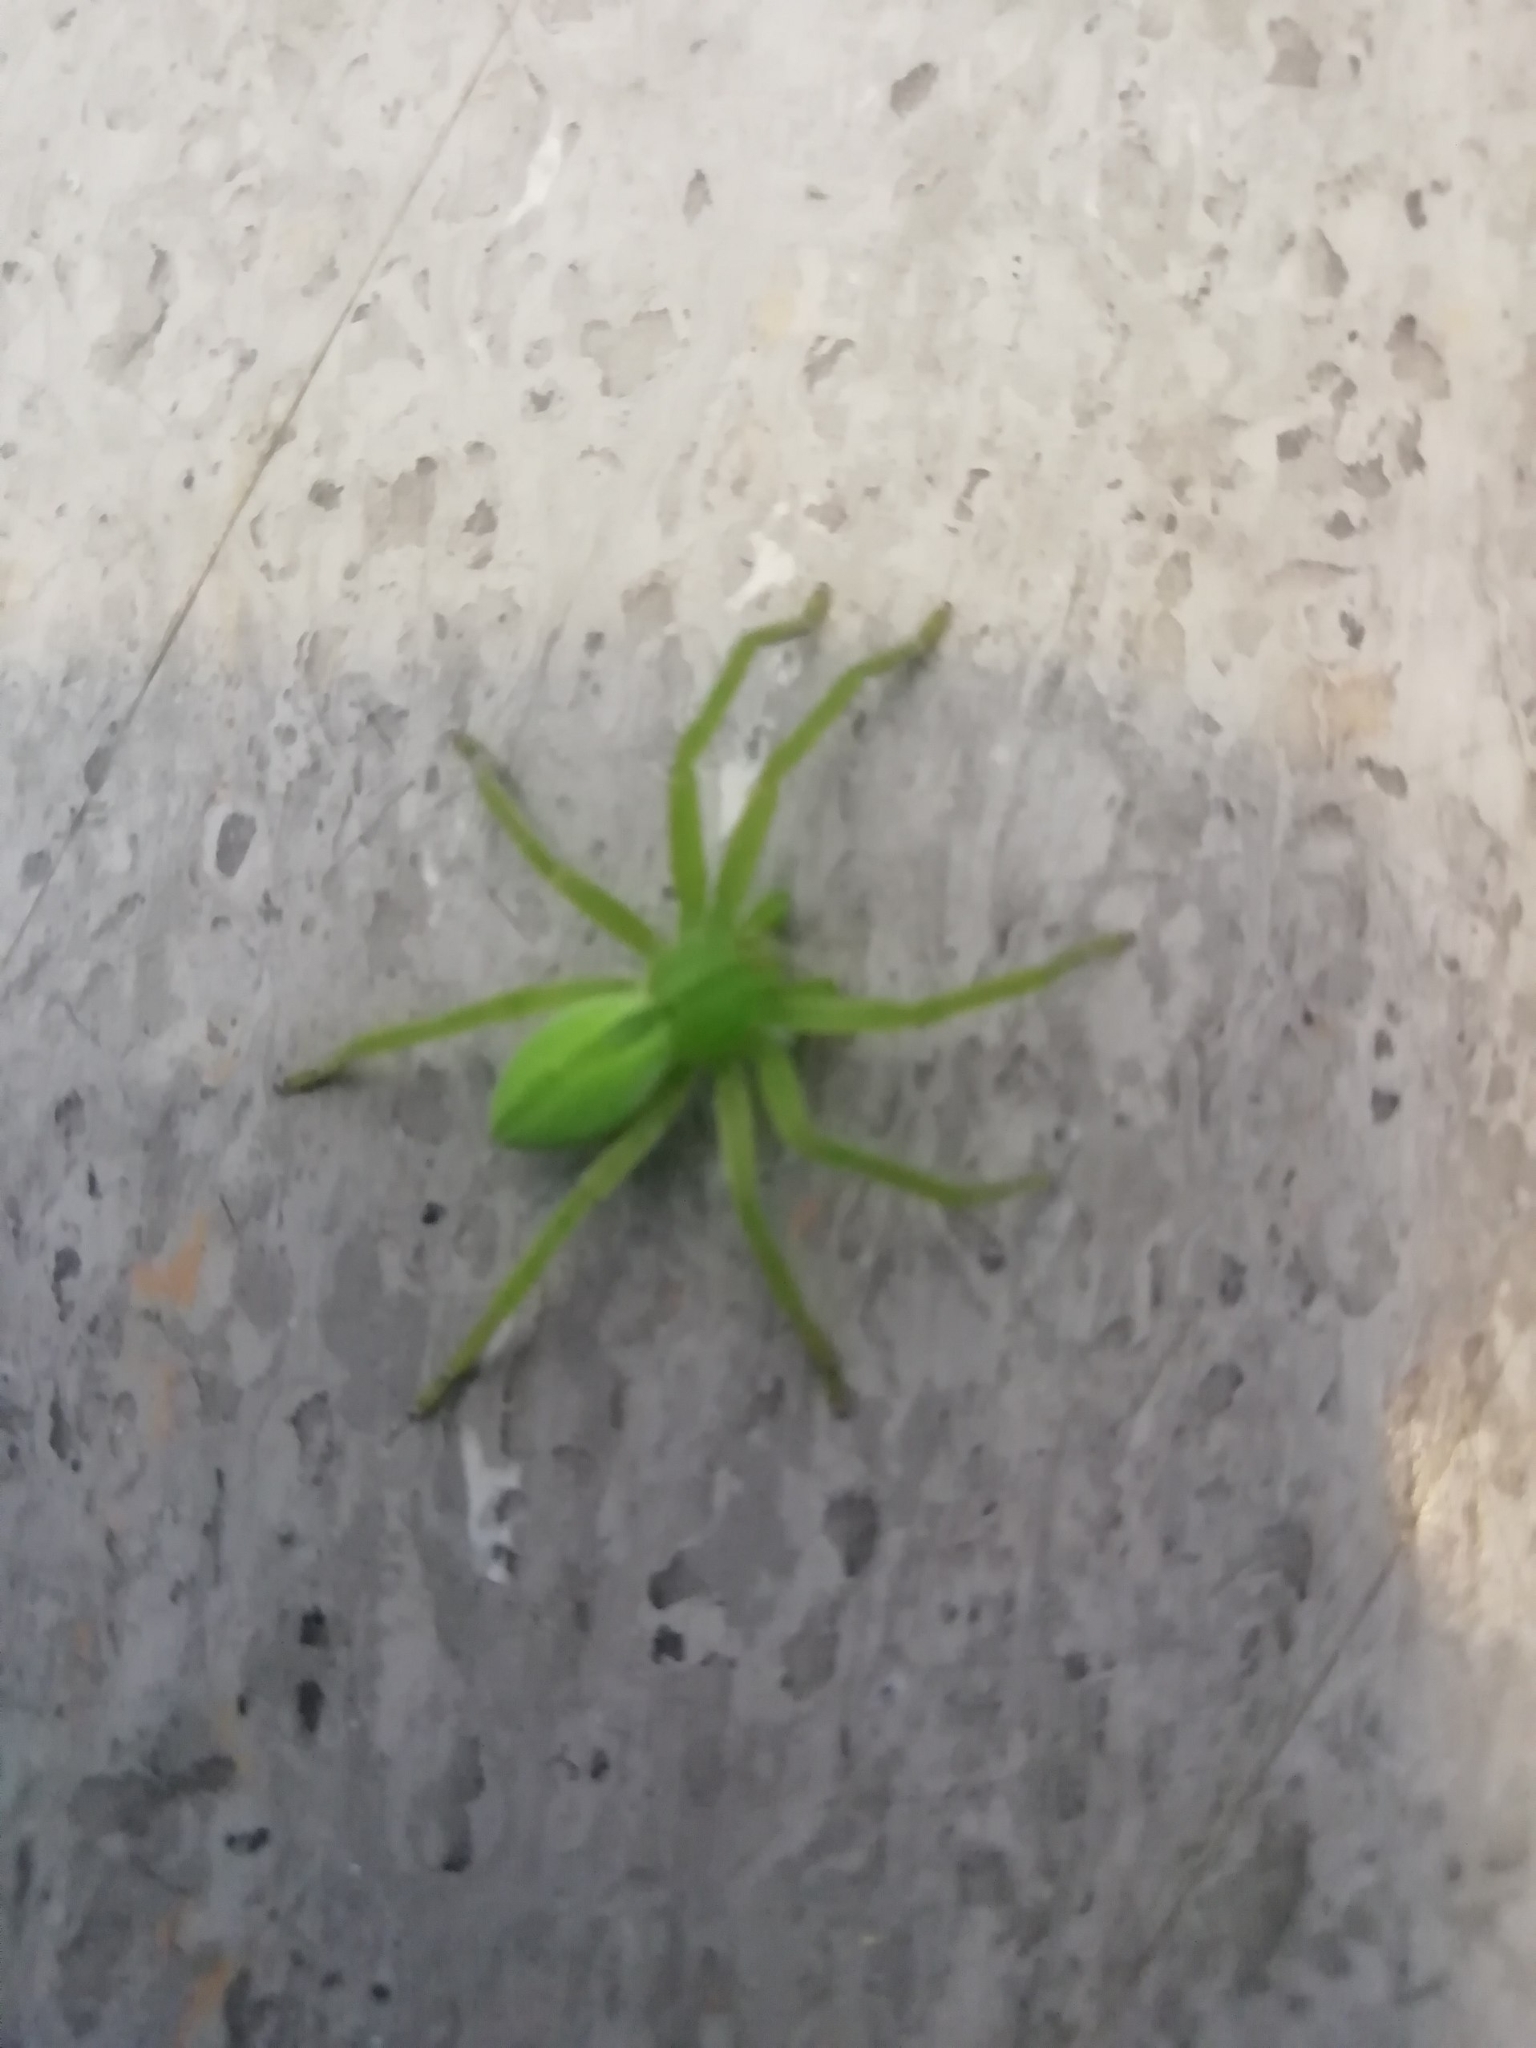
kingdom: Animalia
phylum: Arthropoda
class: Arachnida
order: Araneae
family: Sparassidae
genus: Micrommata
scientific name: Micrommata virescens
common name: Green spider
